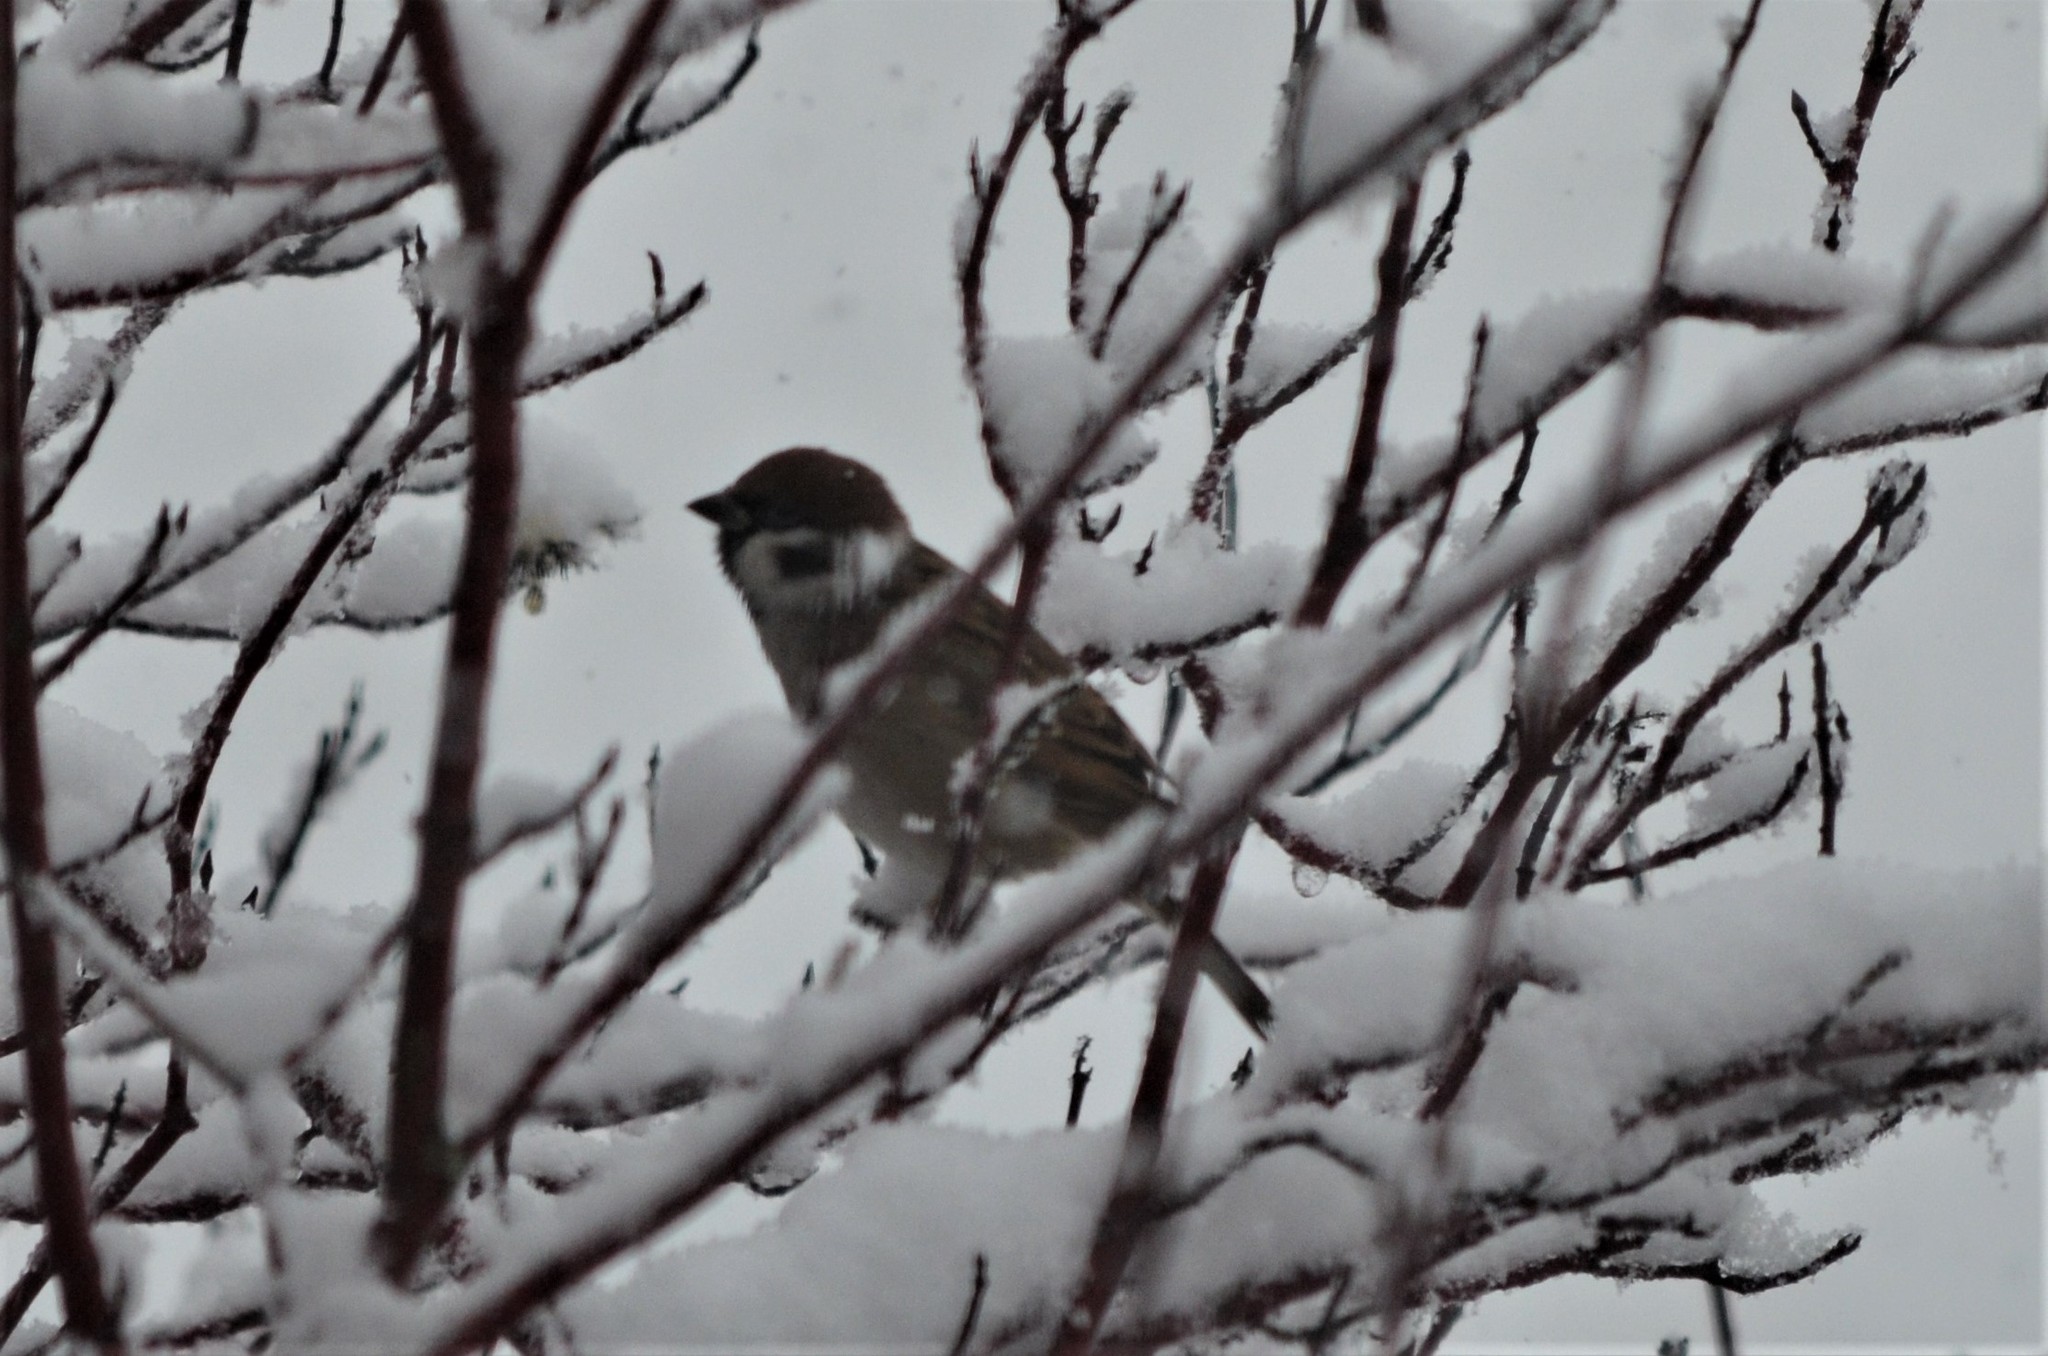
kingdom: Animalia
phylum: Chordata
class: Aves
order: Passeriformes
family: Passeridae
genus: Passer
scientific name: Passer montanus
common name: Eurasian tree sparrow
